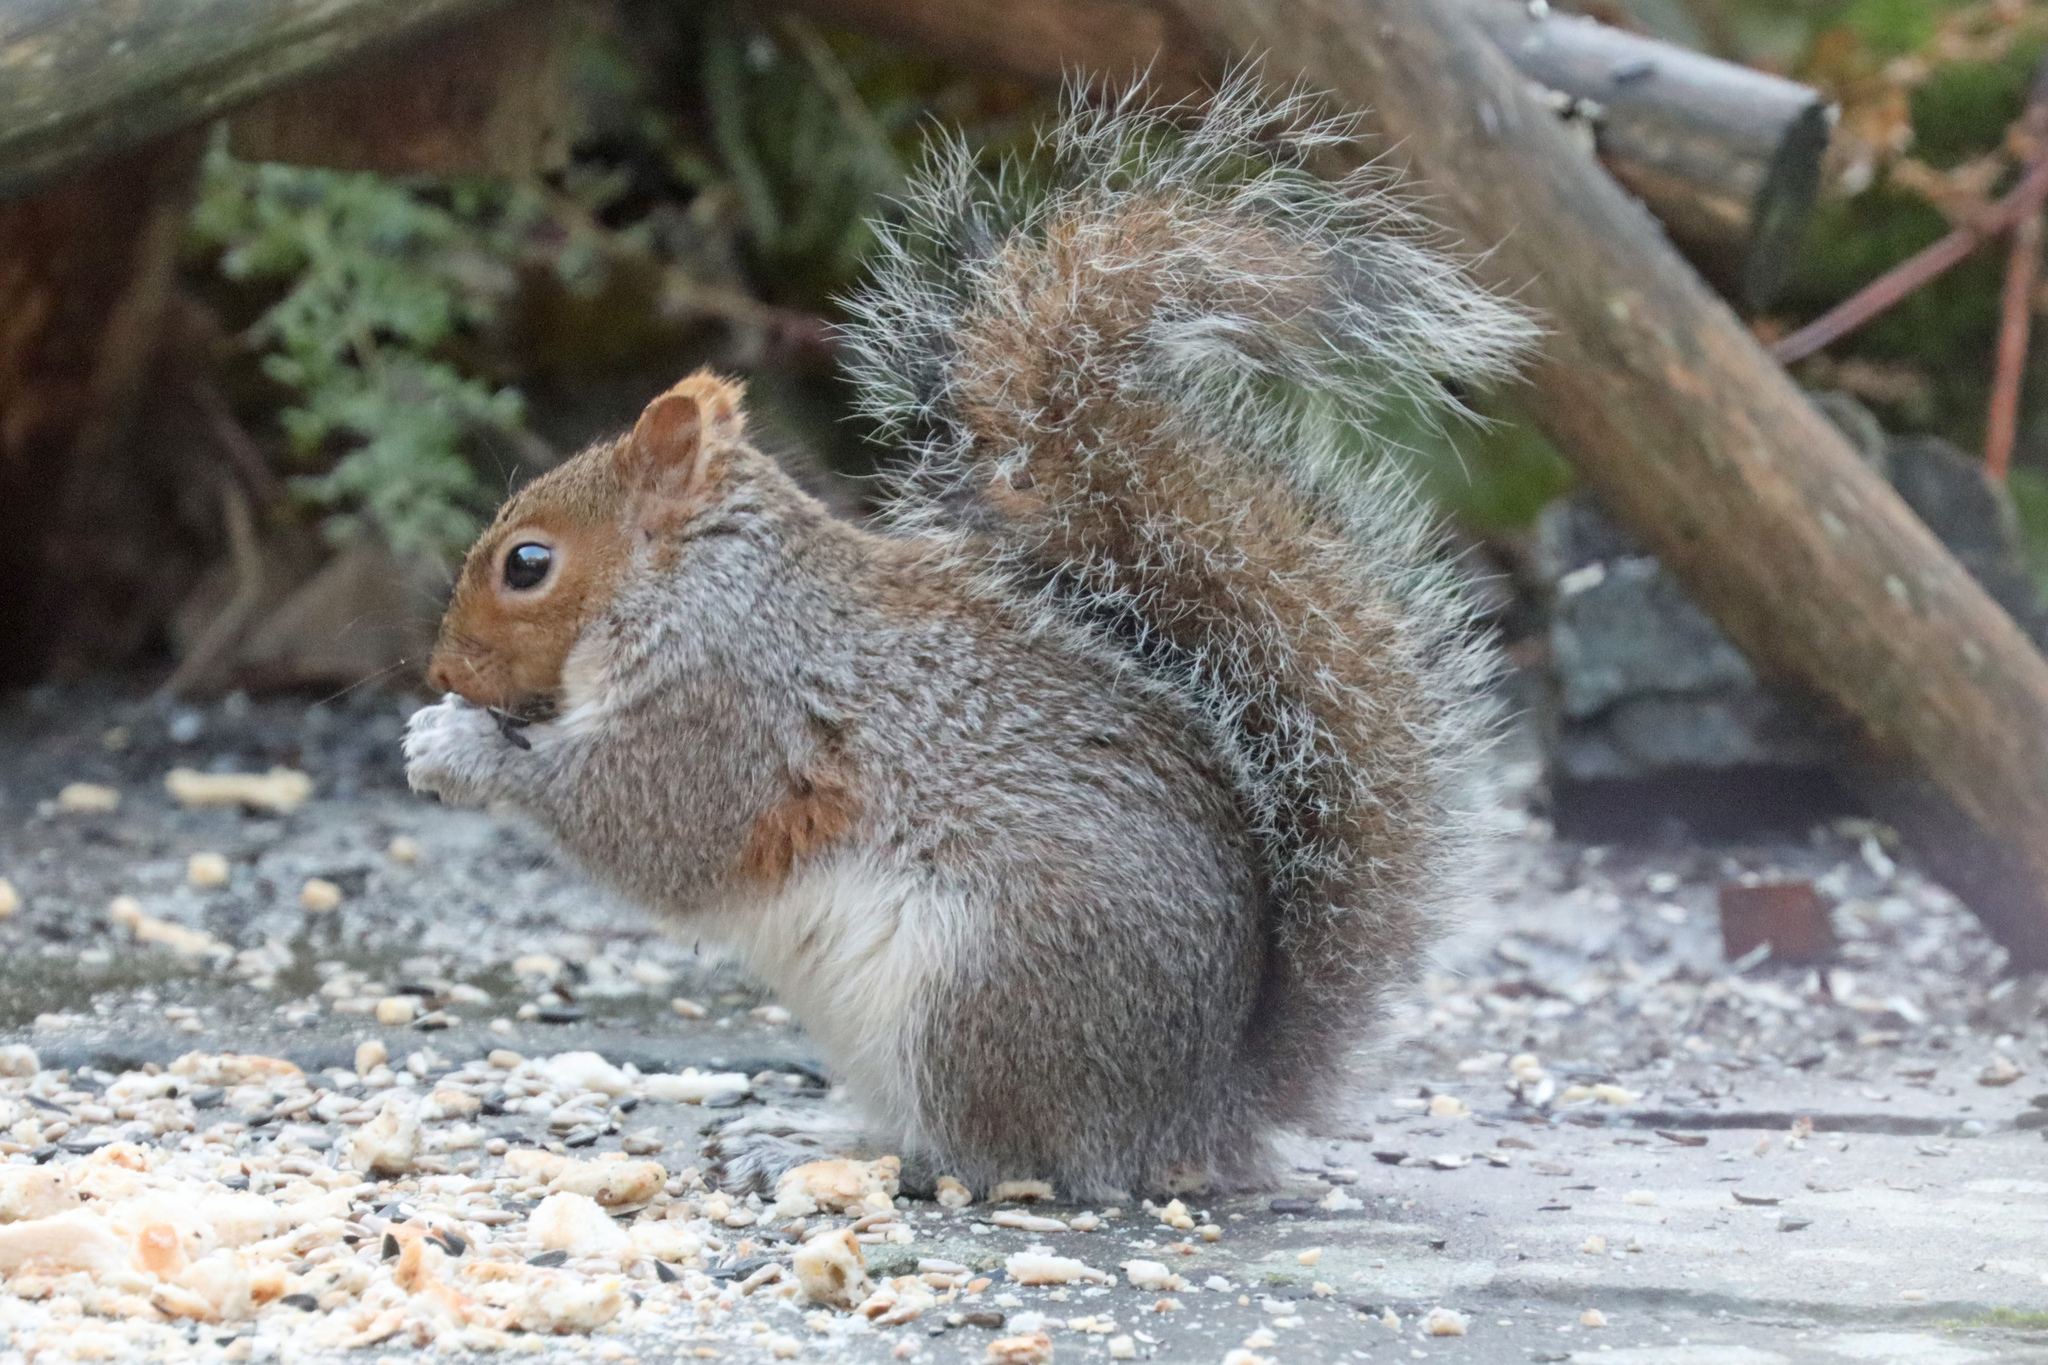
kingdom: Animalia
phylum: Chordata
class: Mammalia
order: Rodentia
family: Sciuridae
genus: Sciurus
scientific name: Sciurus carolinensis
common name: Eastern gray squirrel
